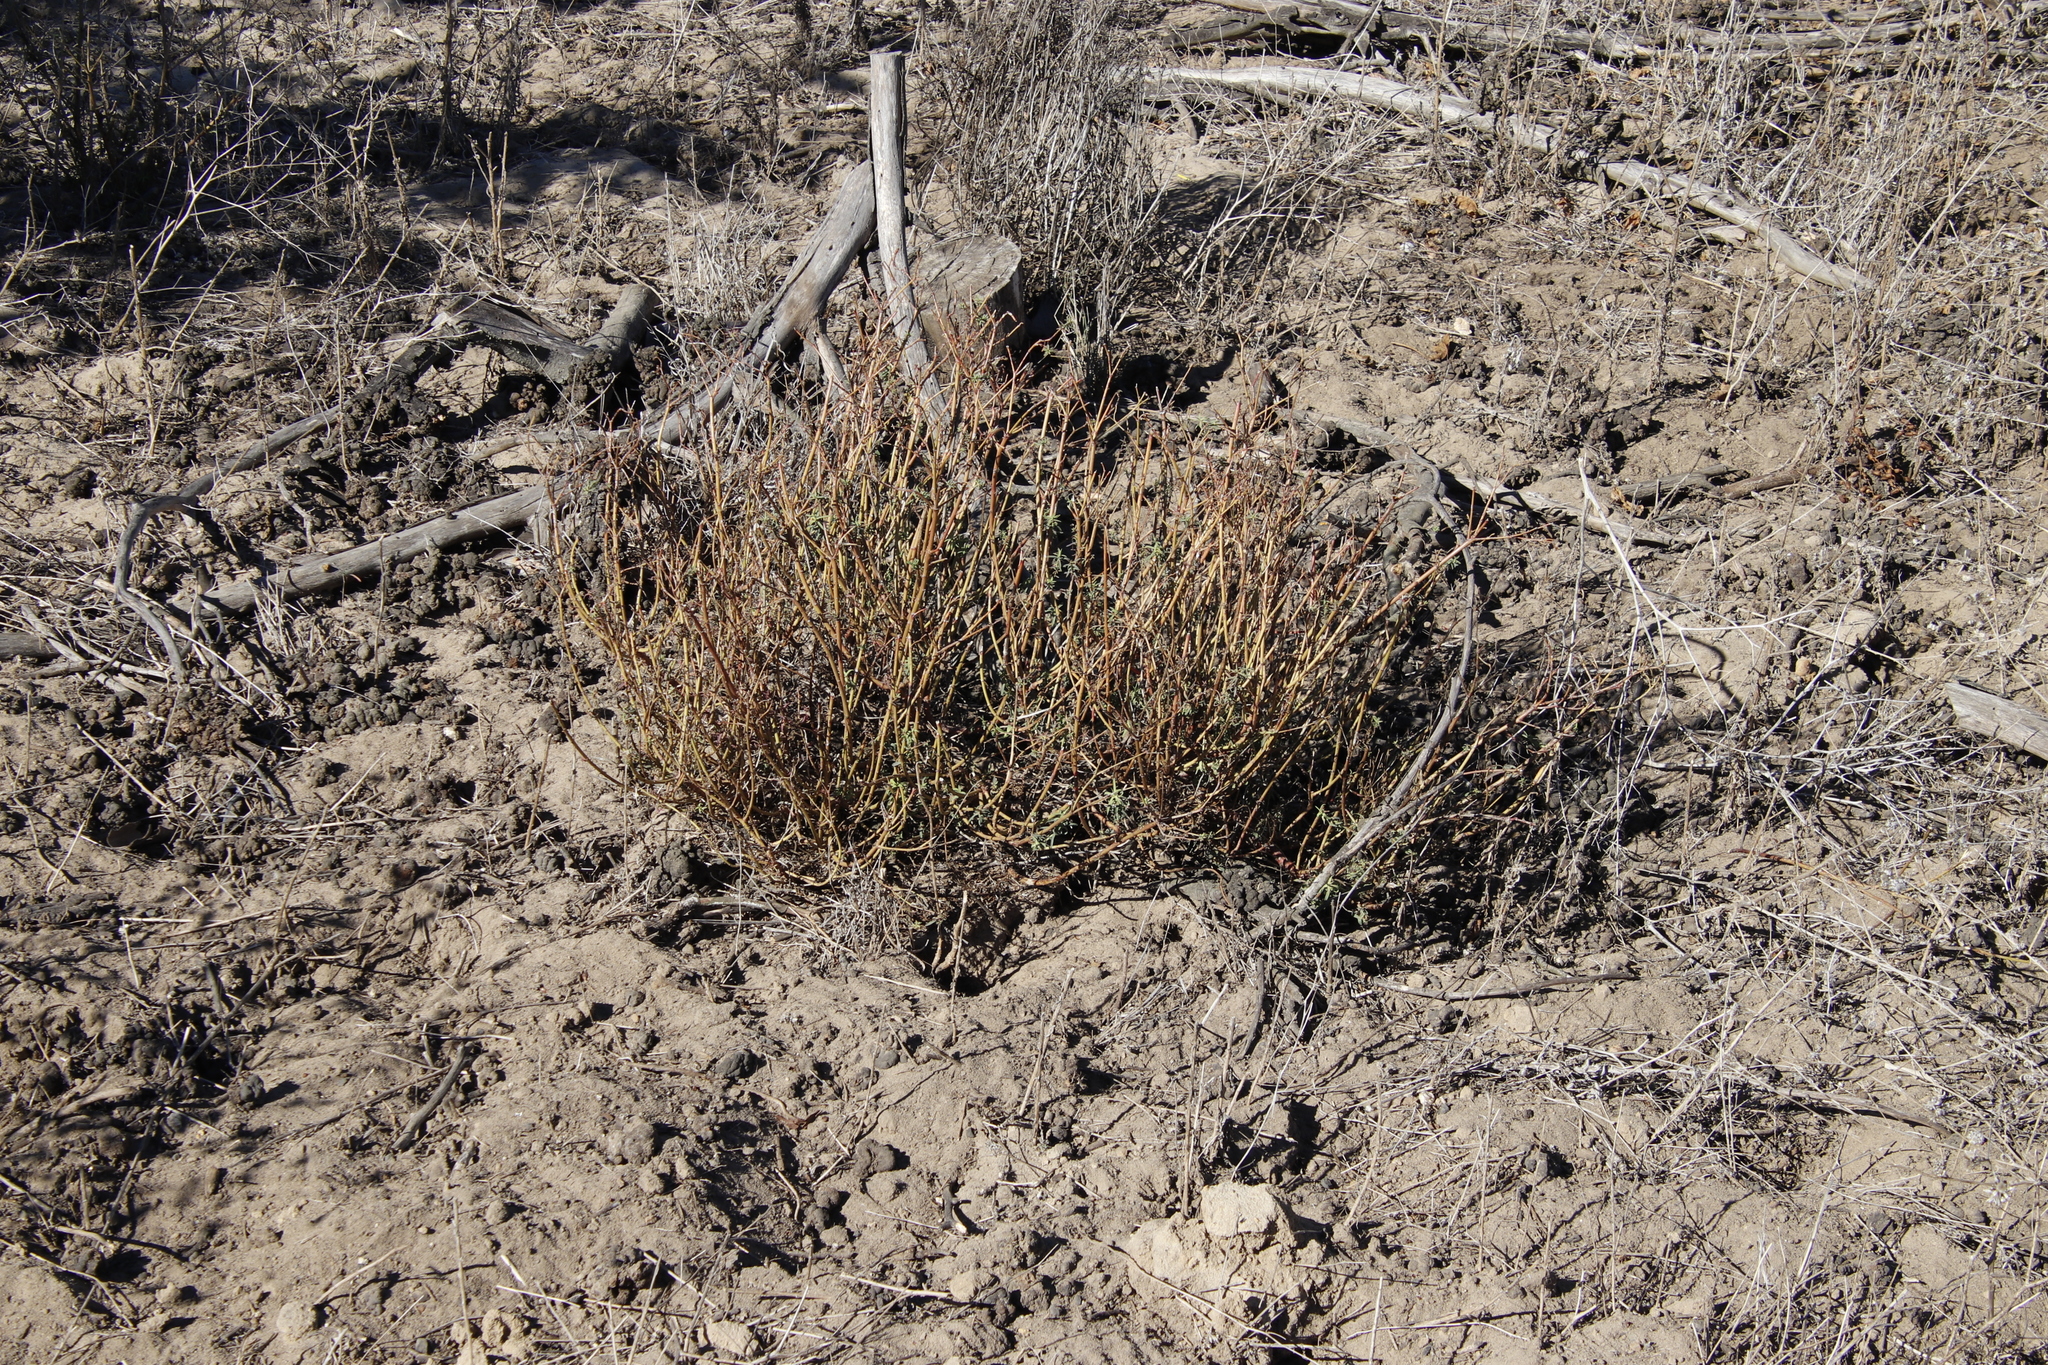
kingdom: Plantae
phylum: Tracheophyta
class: Magnoliopsida
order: Malpighiales
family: Euphorbiaceae
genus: Euphorbia
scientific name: Euphorbia terracina
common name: Geraldton carnation weed
